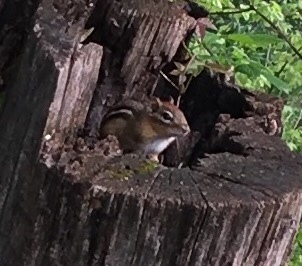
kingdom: Animalia
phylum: Chordata
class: Mammalia
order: Rodentia
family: Sciuridae
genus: Tamias
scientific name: Tamias striatus
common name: Eastern chipmunk
